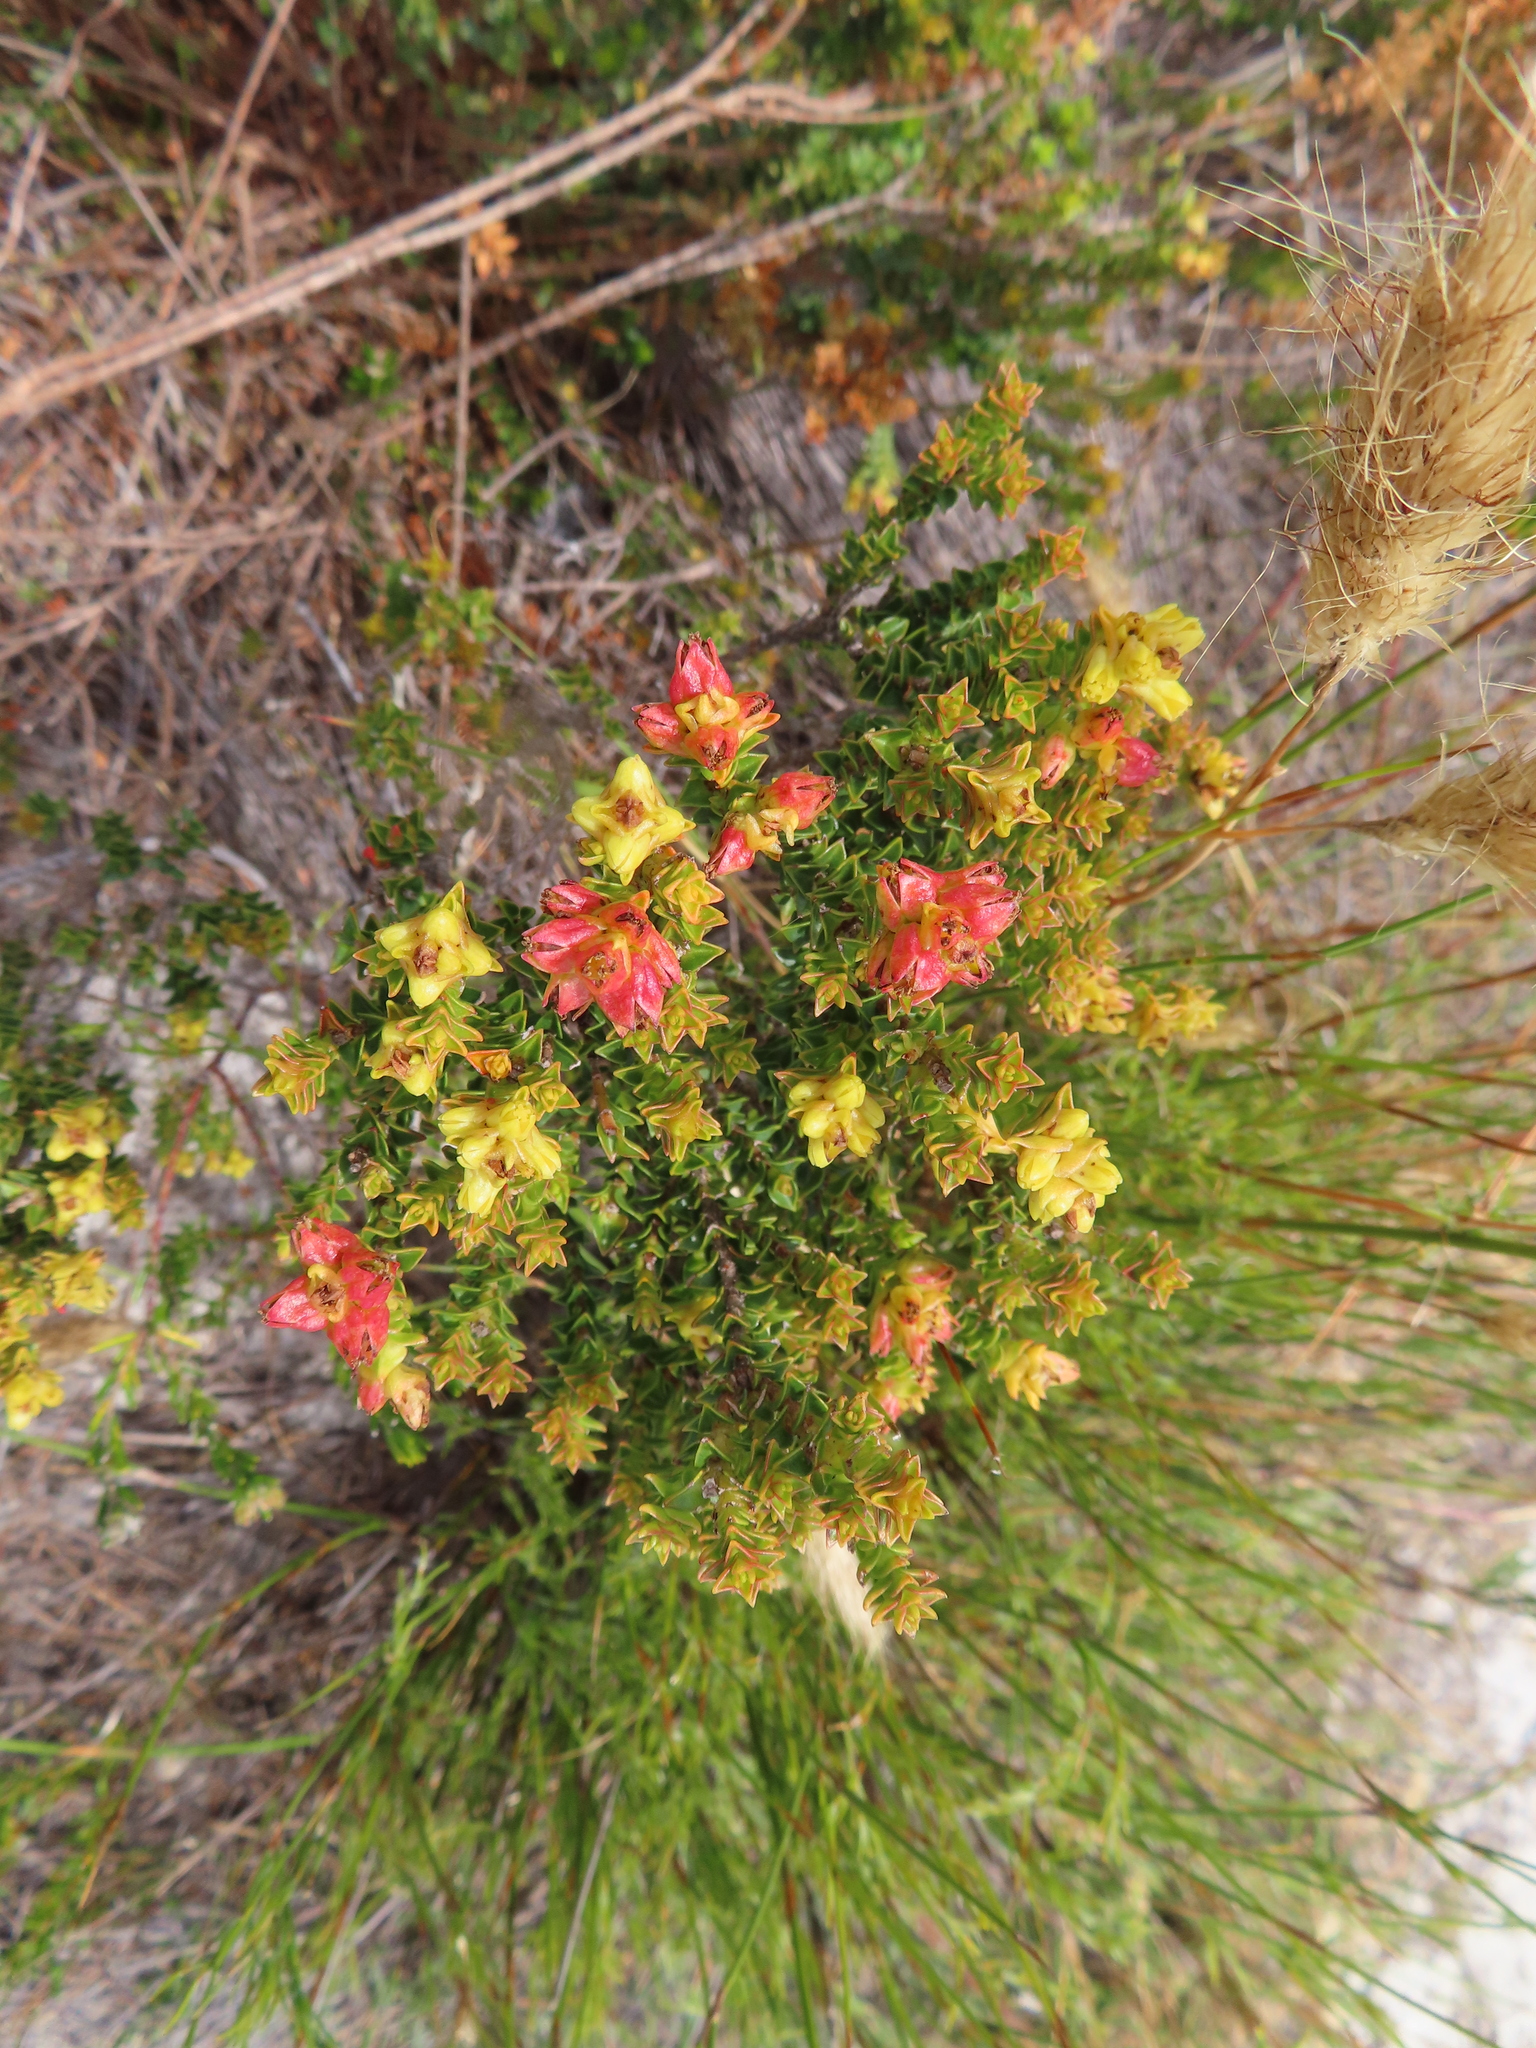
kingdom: Plantae
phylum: Tracheophyta
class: Magnoliopsida
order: Myrtales
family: Penaeaceae
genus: Penaea
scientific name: Penaea mucronata
